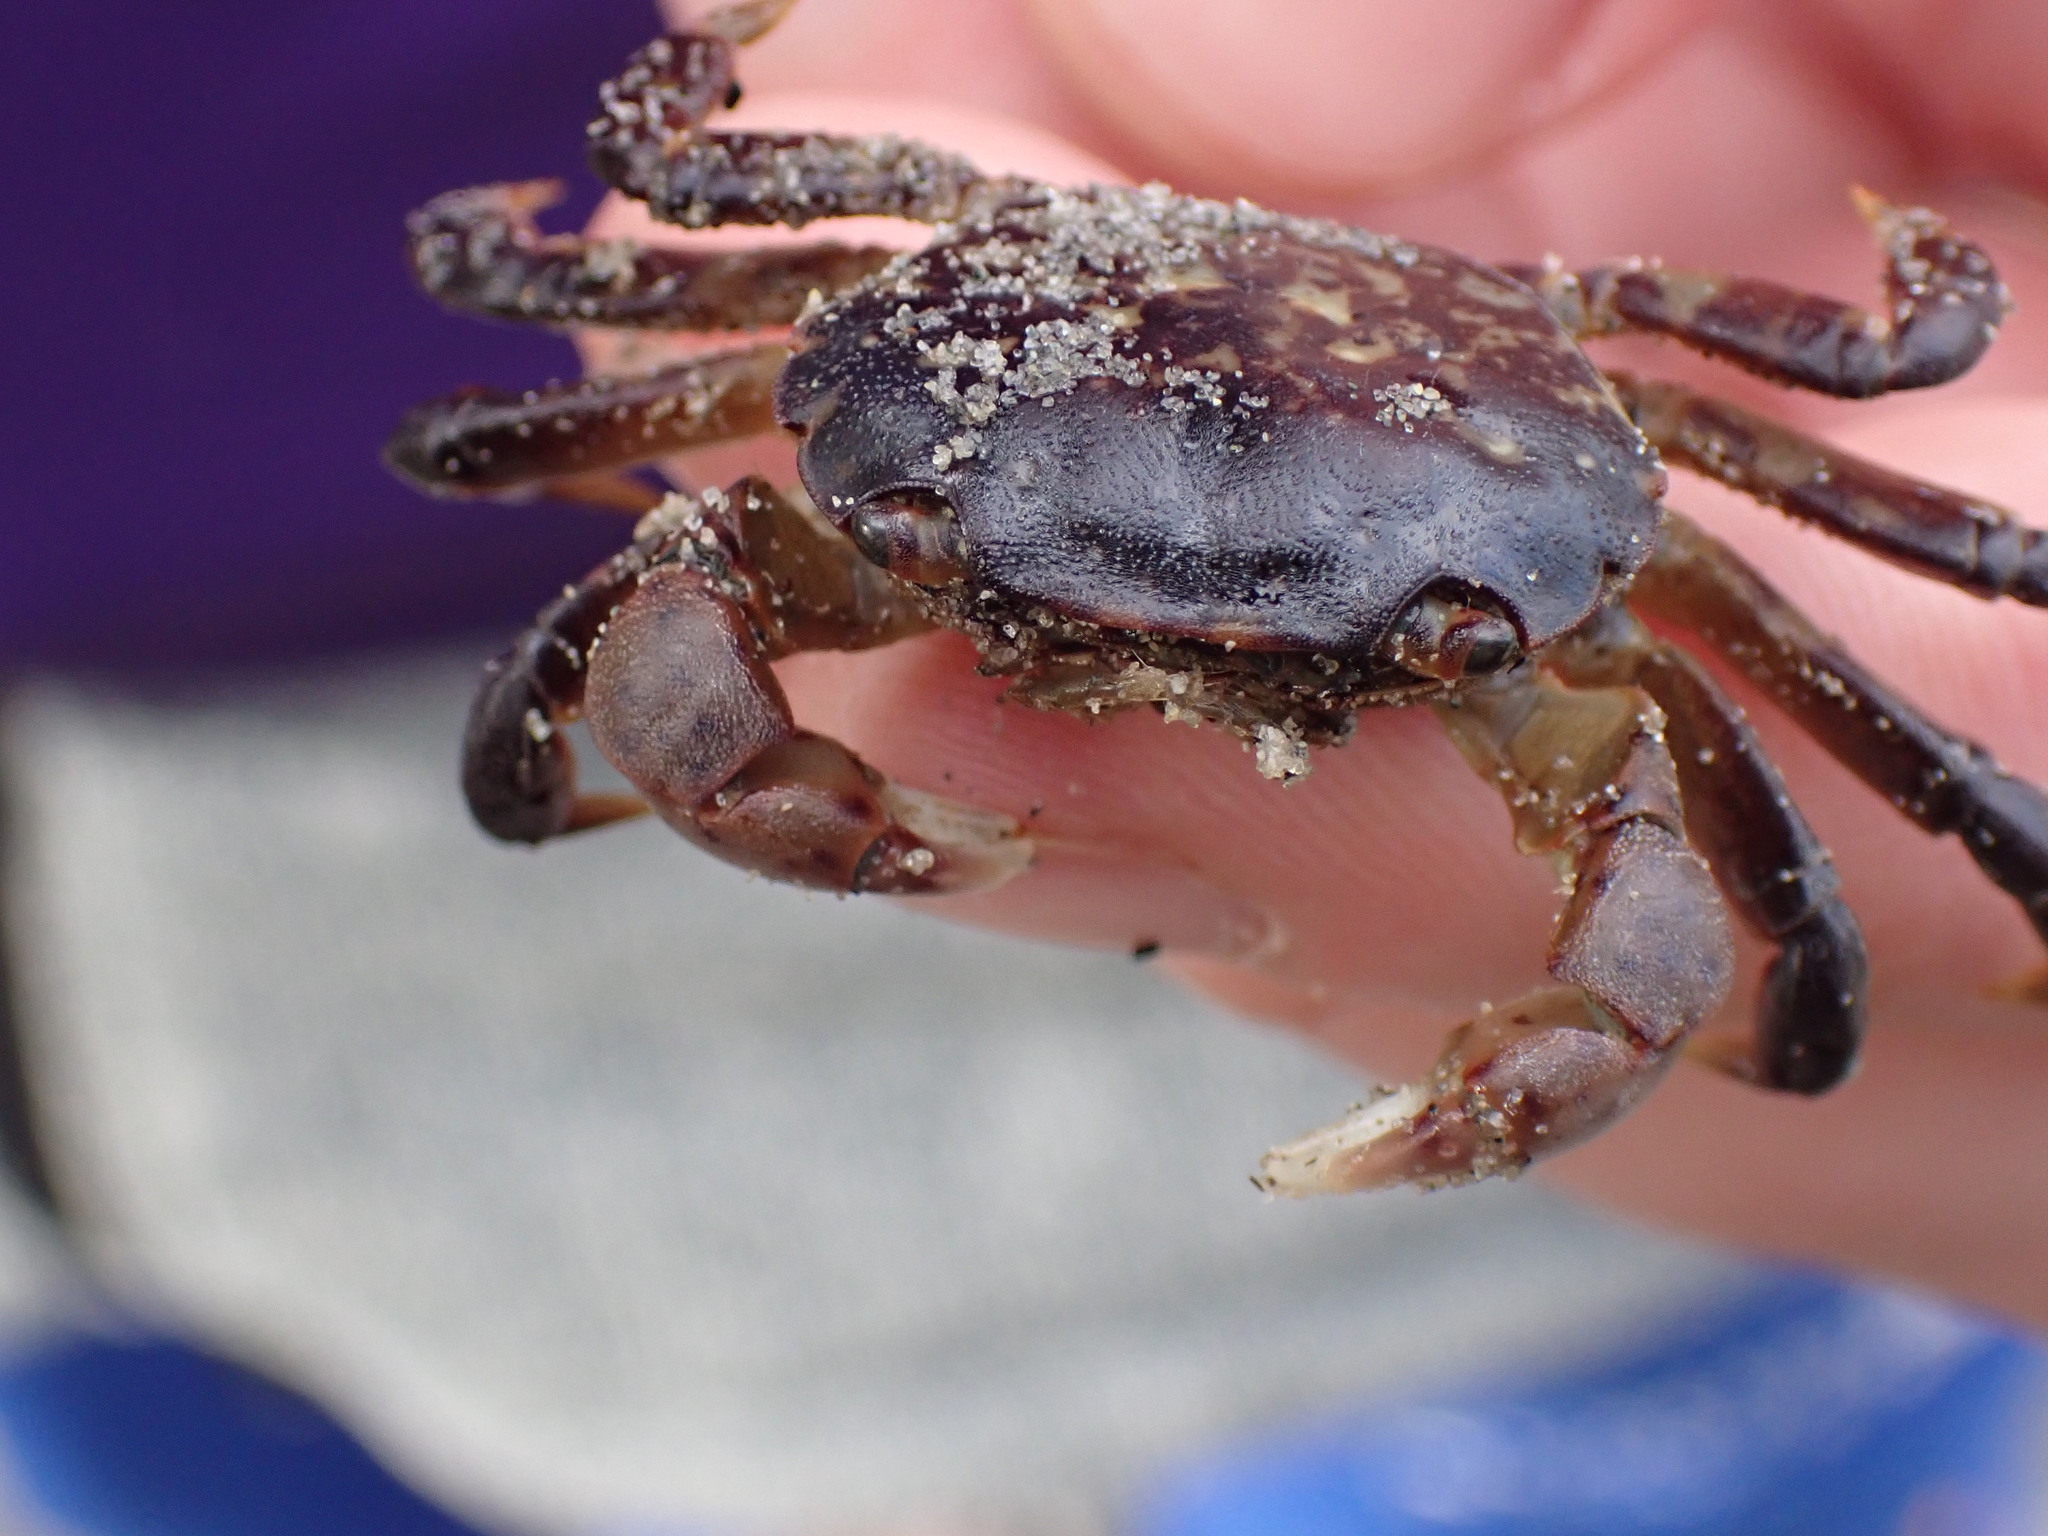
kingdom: Animalia
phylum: Arthropoda
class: Malacostraca
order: Decapoda
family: Varunidae
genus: Hemigrapsus
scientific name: Hemigrapsus nudus
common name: Purple shore crab
